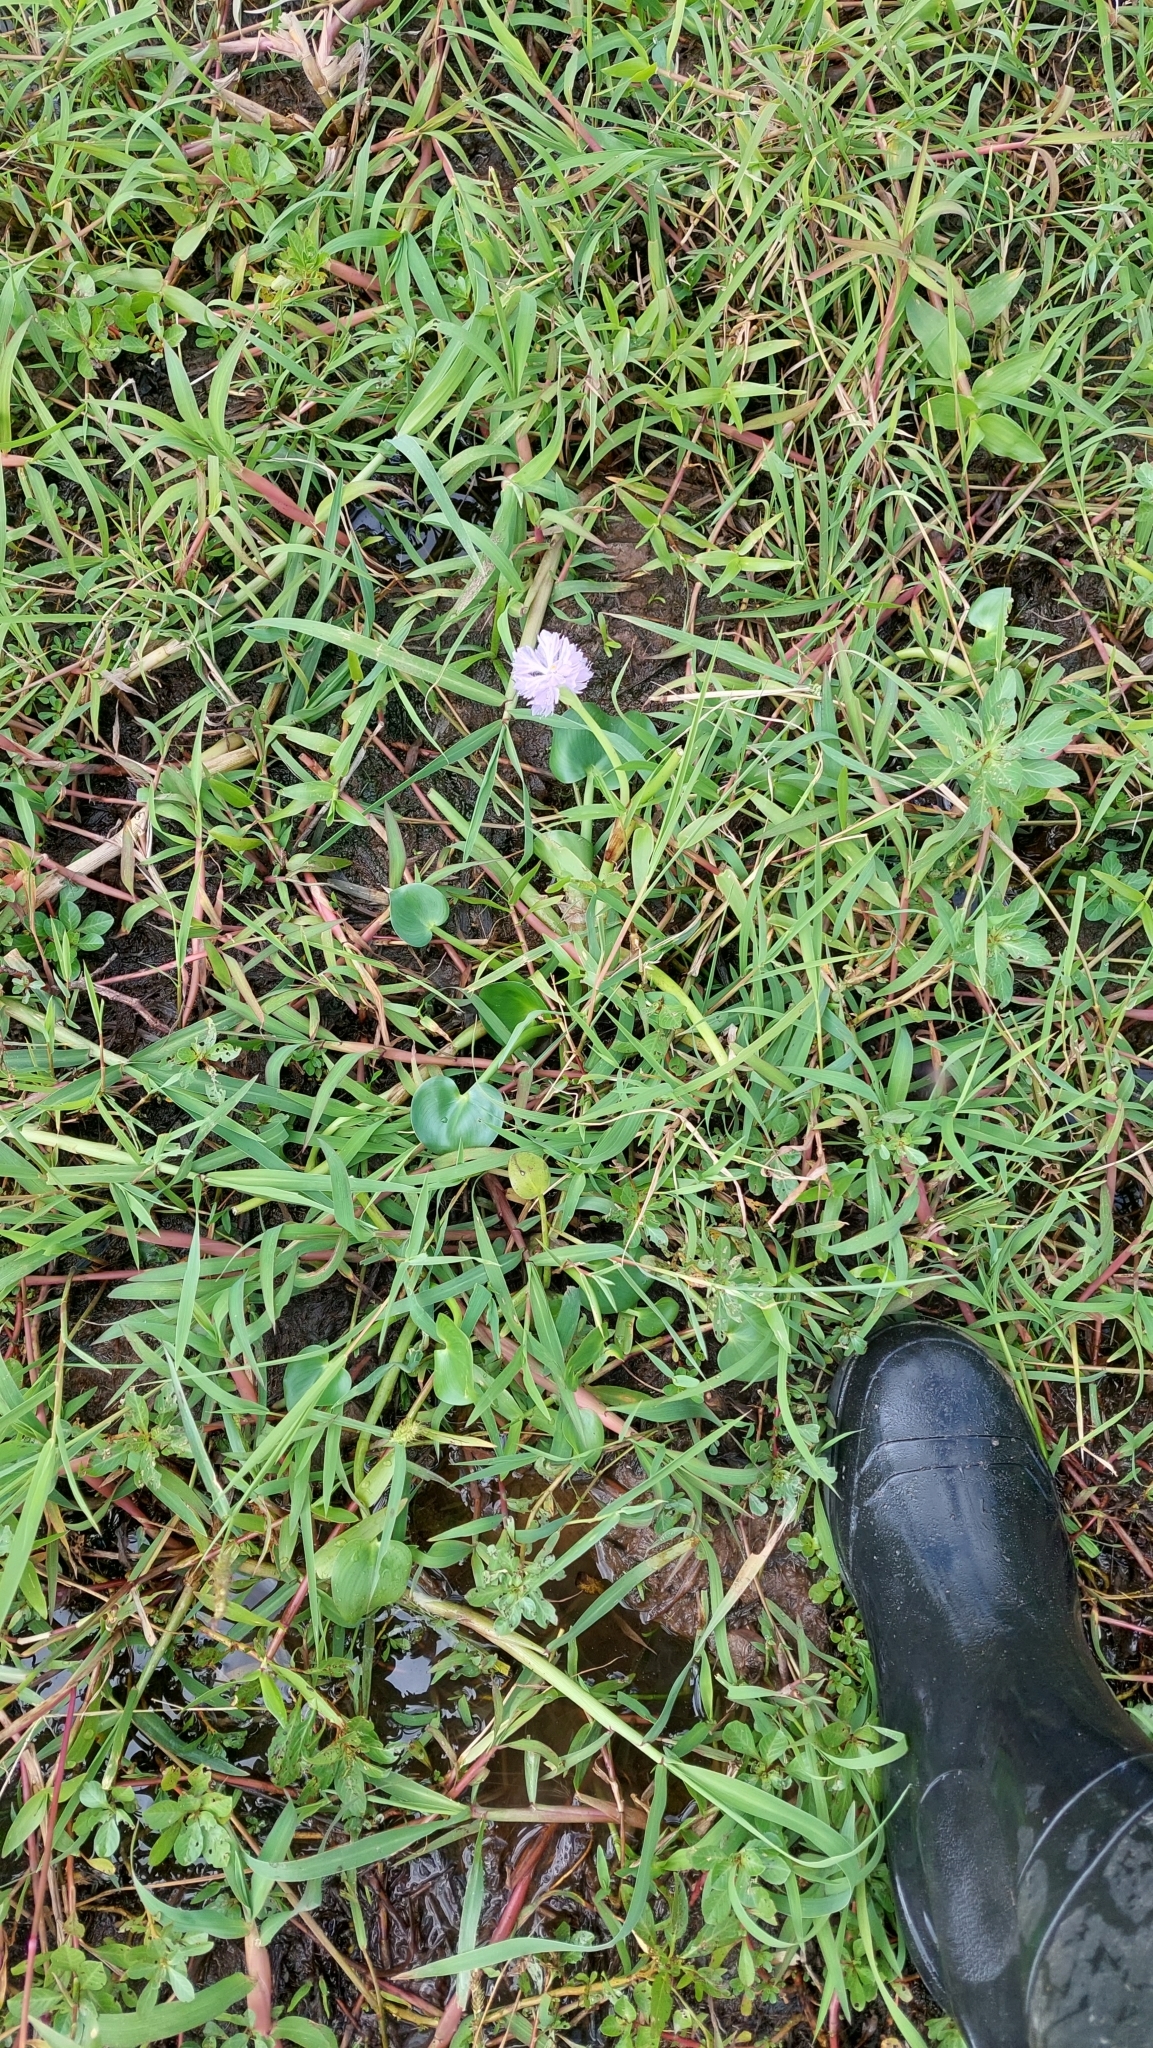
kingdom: Plantae
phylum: Tracheophyta
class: Liliopsida
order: Commelinales
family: Pontederiaceae
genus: Pontederia
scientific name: Pontederia rotundifolia
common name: Tropical pickerel-weed
